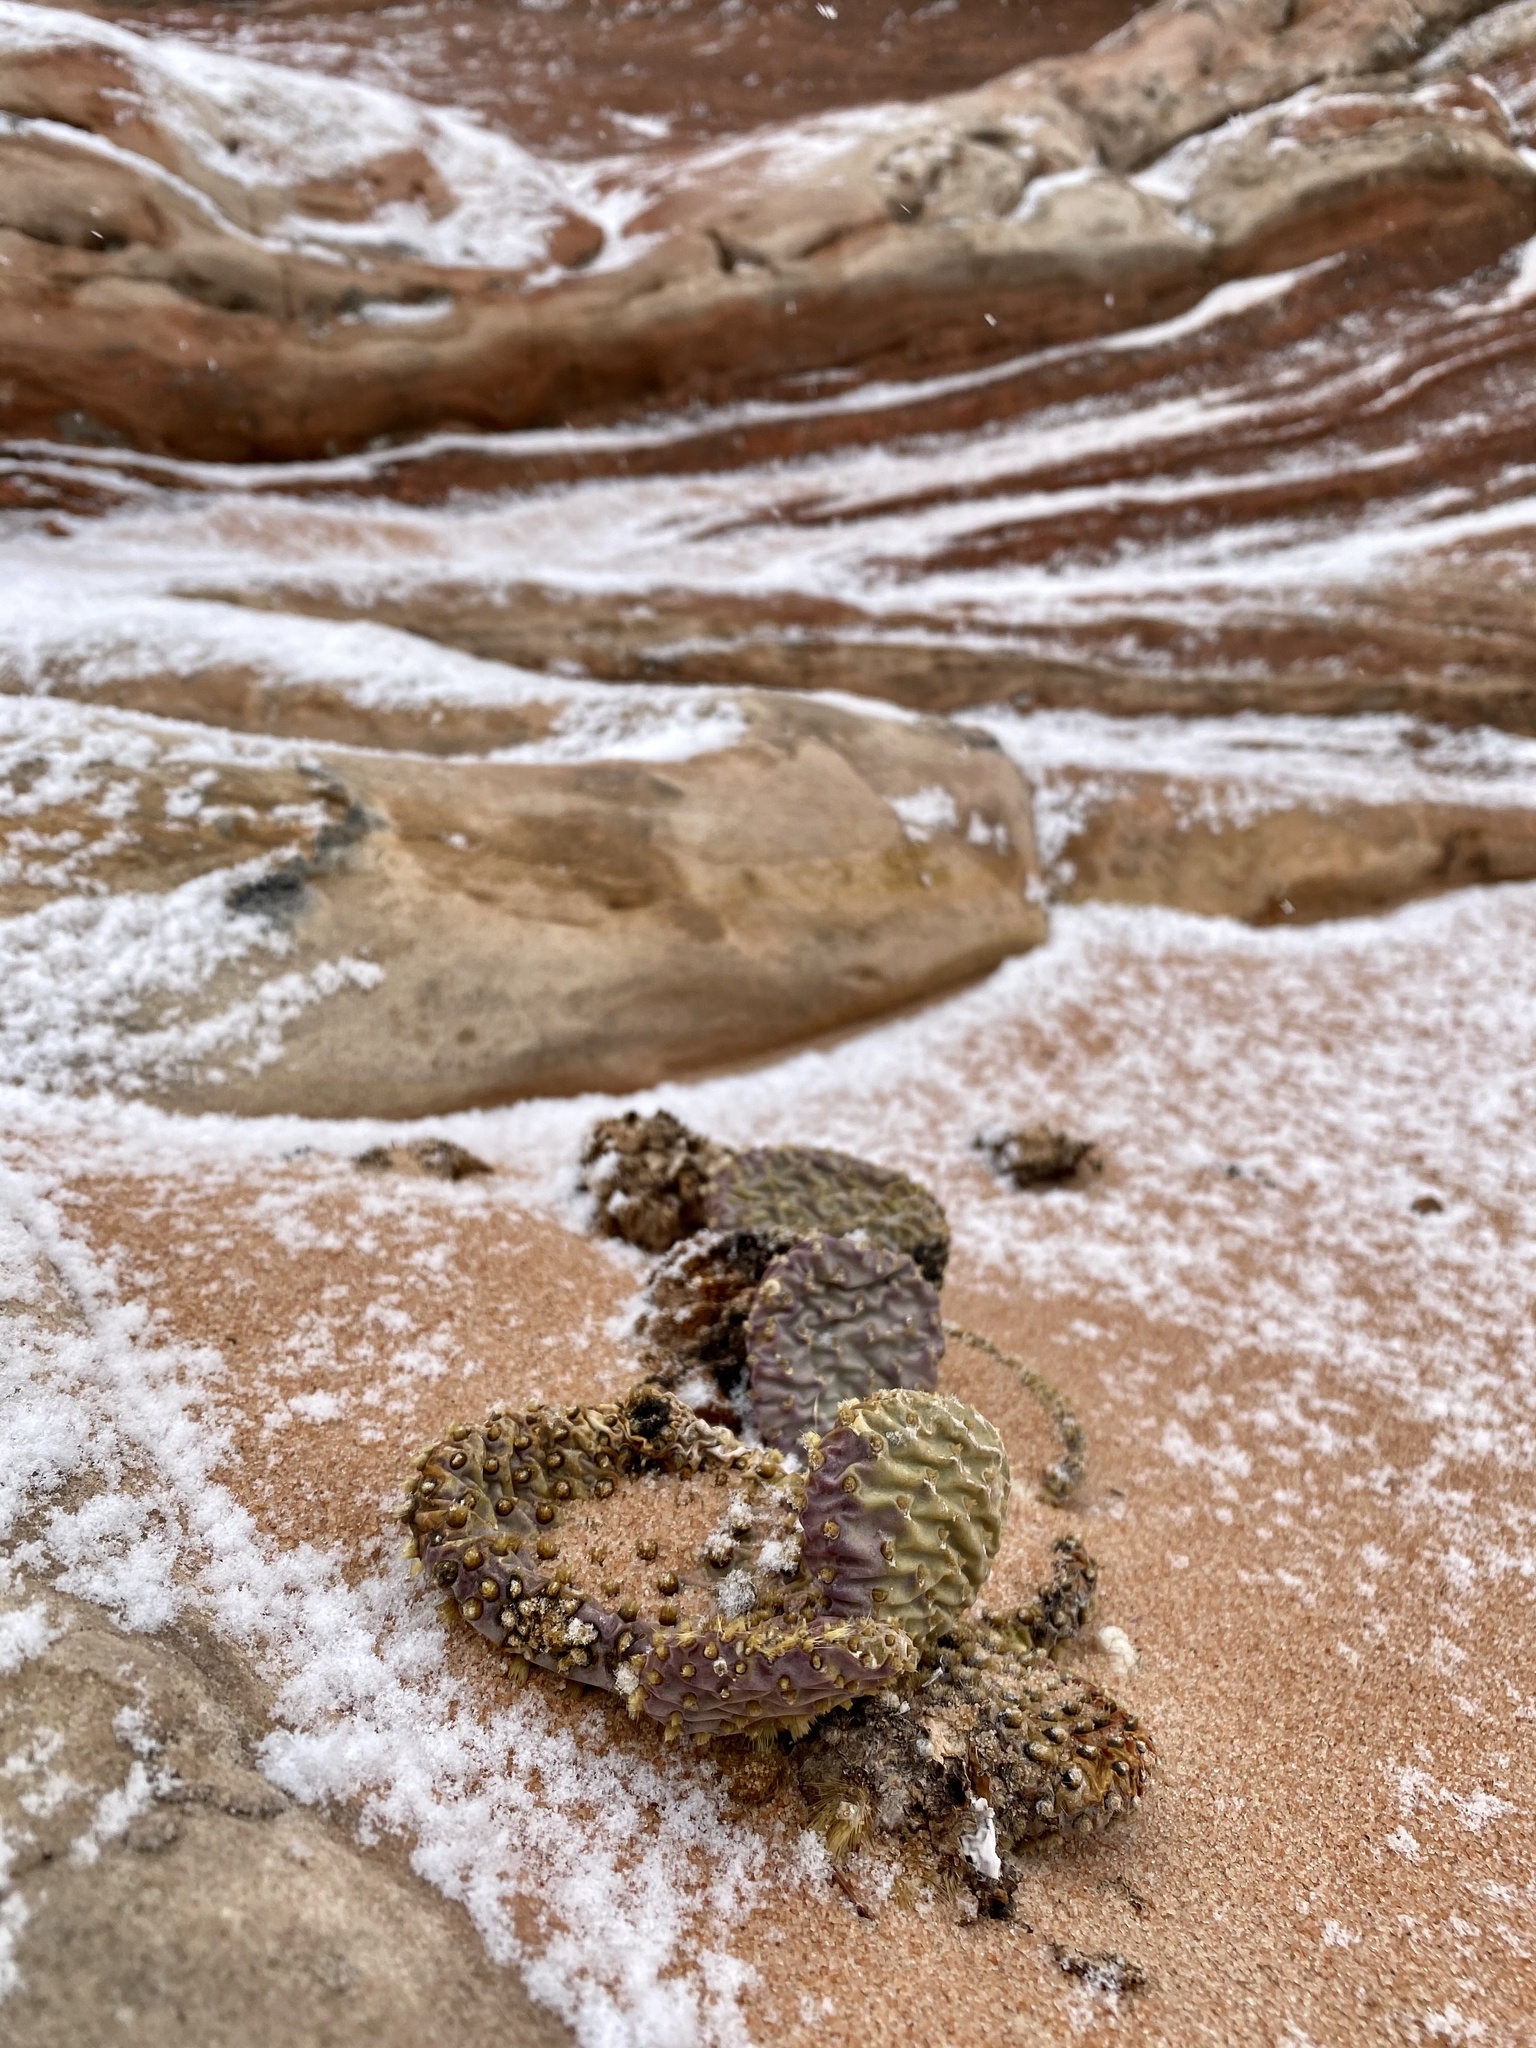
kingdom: Plantae
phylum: Tracheophyta
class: Magnoliopsida
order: Caryophyllales
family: Cactaceae
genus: Opuntia
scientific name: Opuntia basilaris
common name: Beavertail prickly-pear
